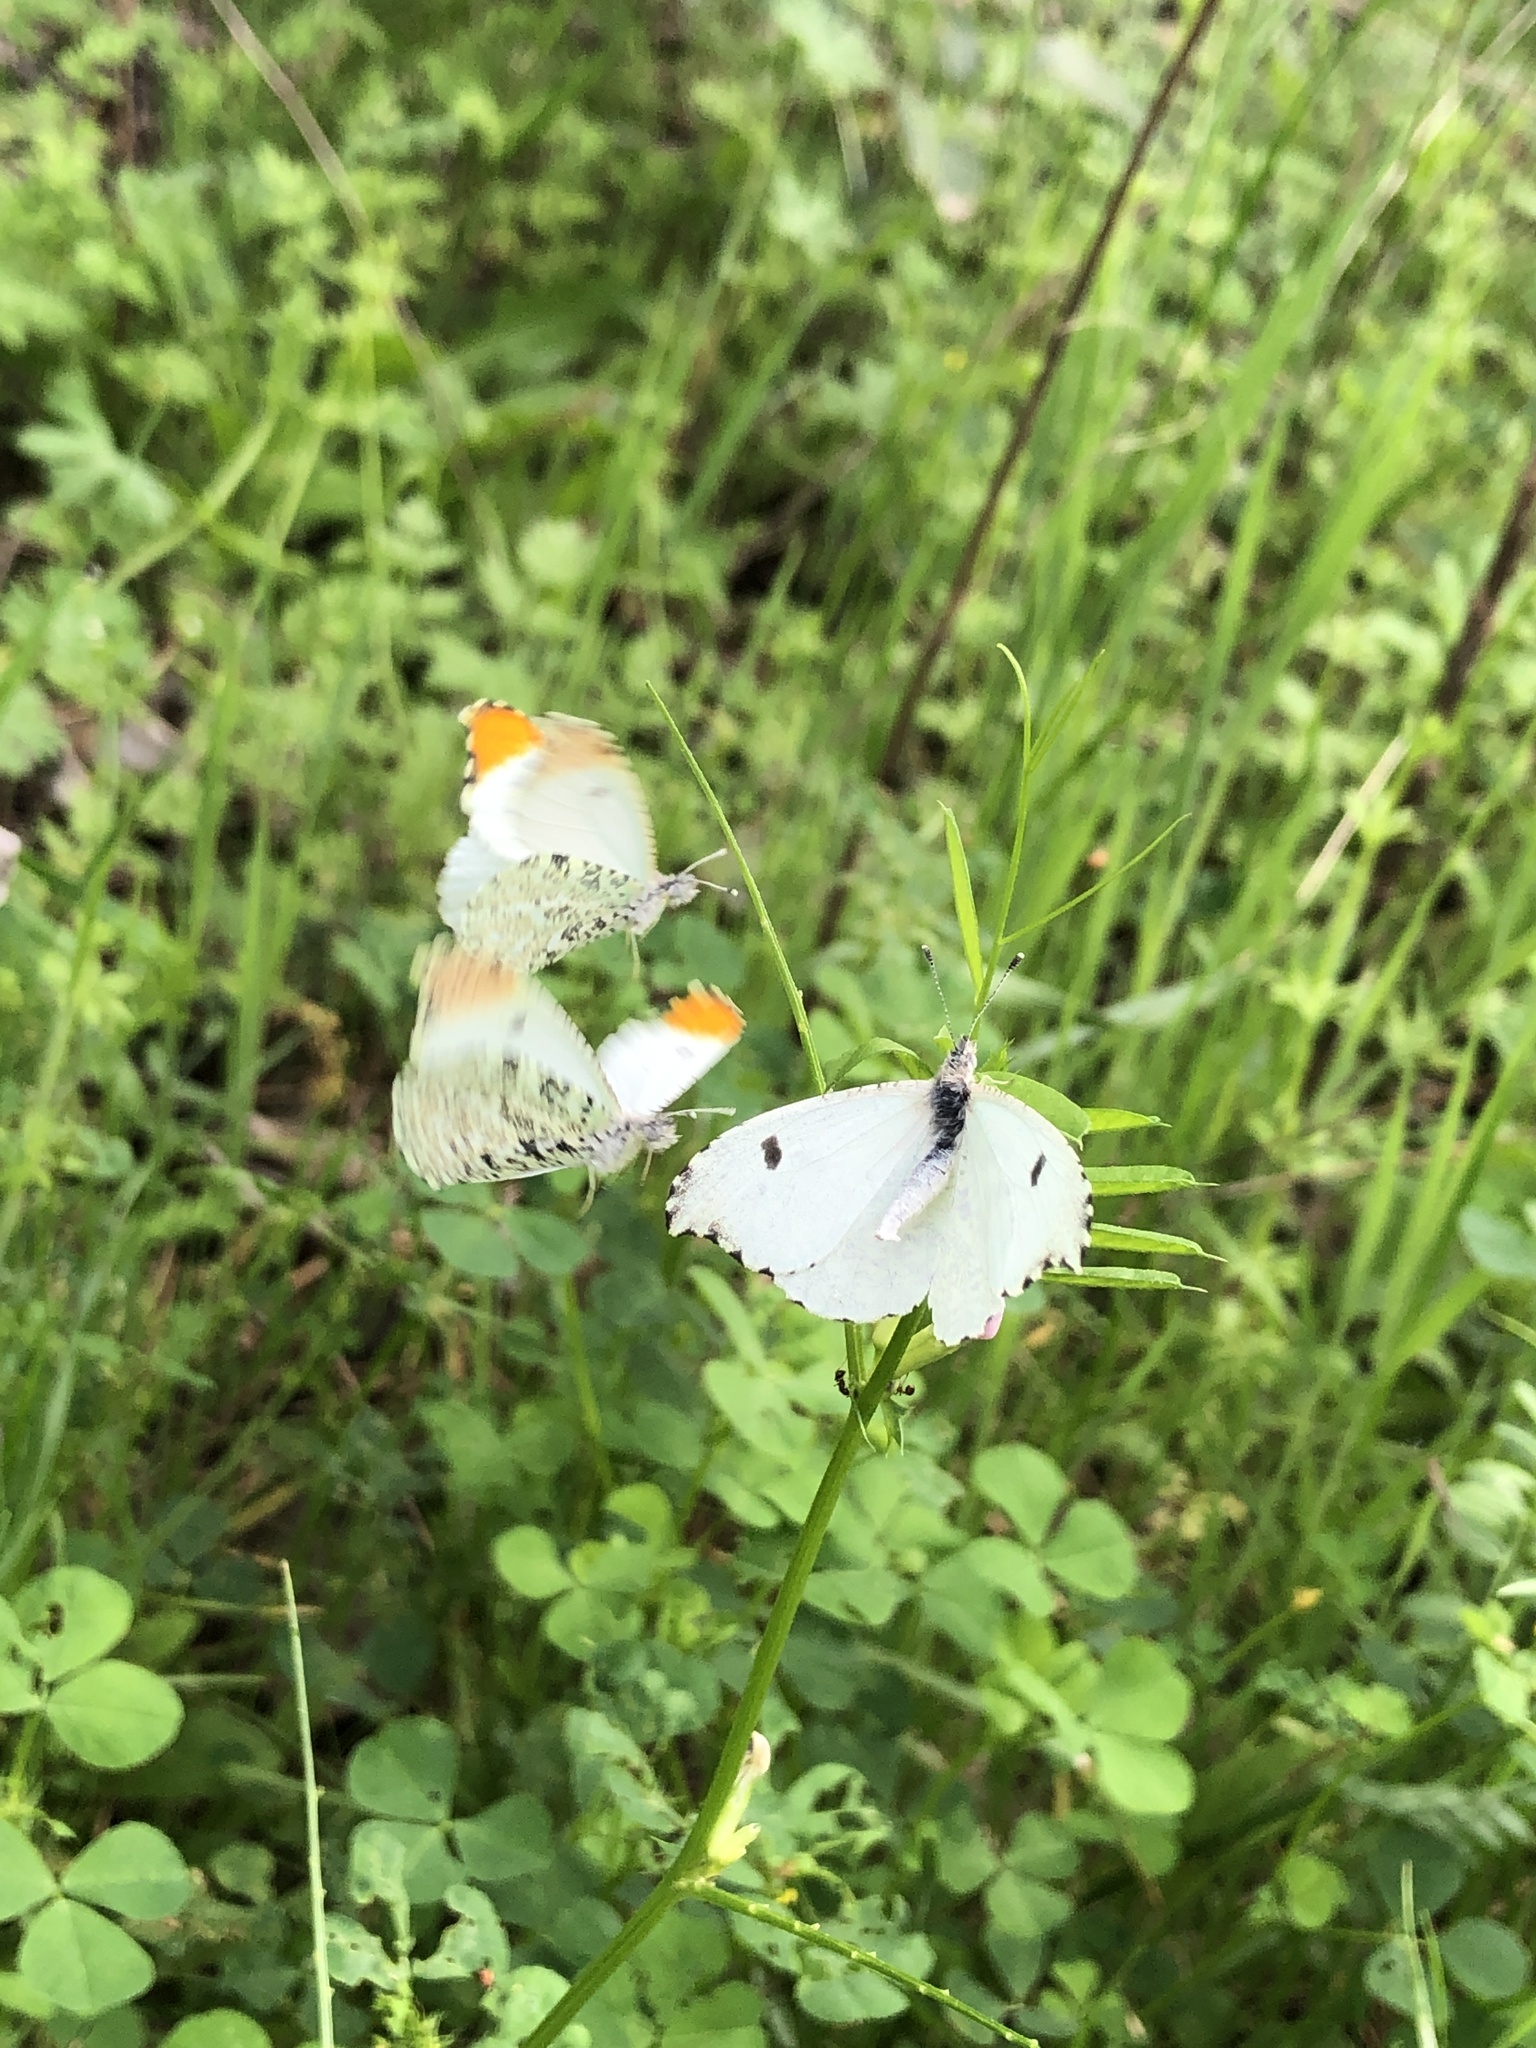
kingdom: Animalia
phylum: Arthropoda
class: Insecta
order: Lepidoptera
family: Pieridae
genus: Anthocharis
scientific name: Anthocharis midea
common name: Falcate orangetip
